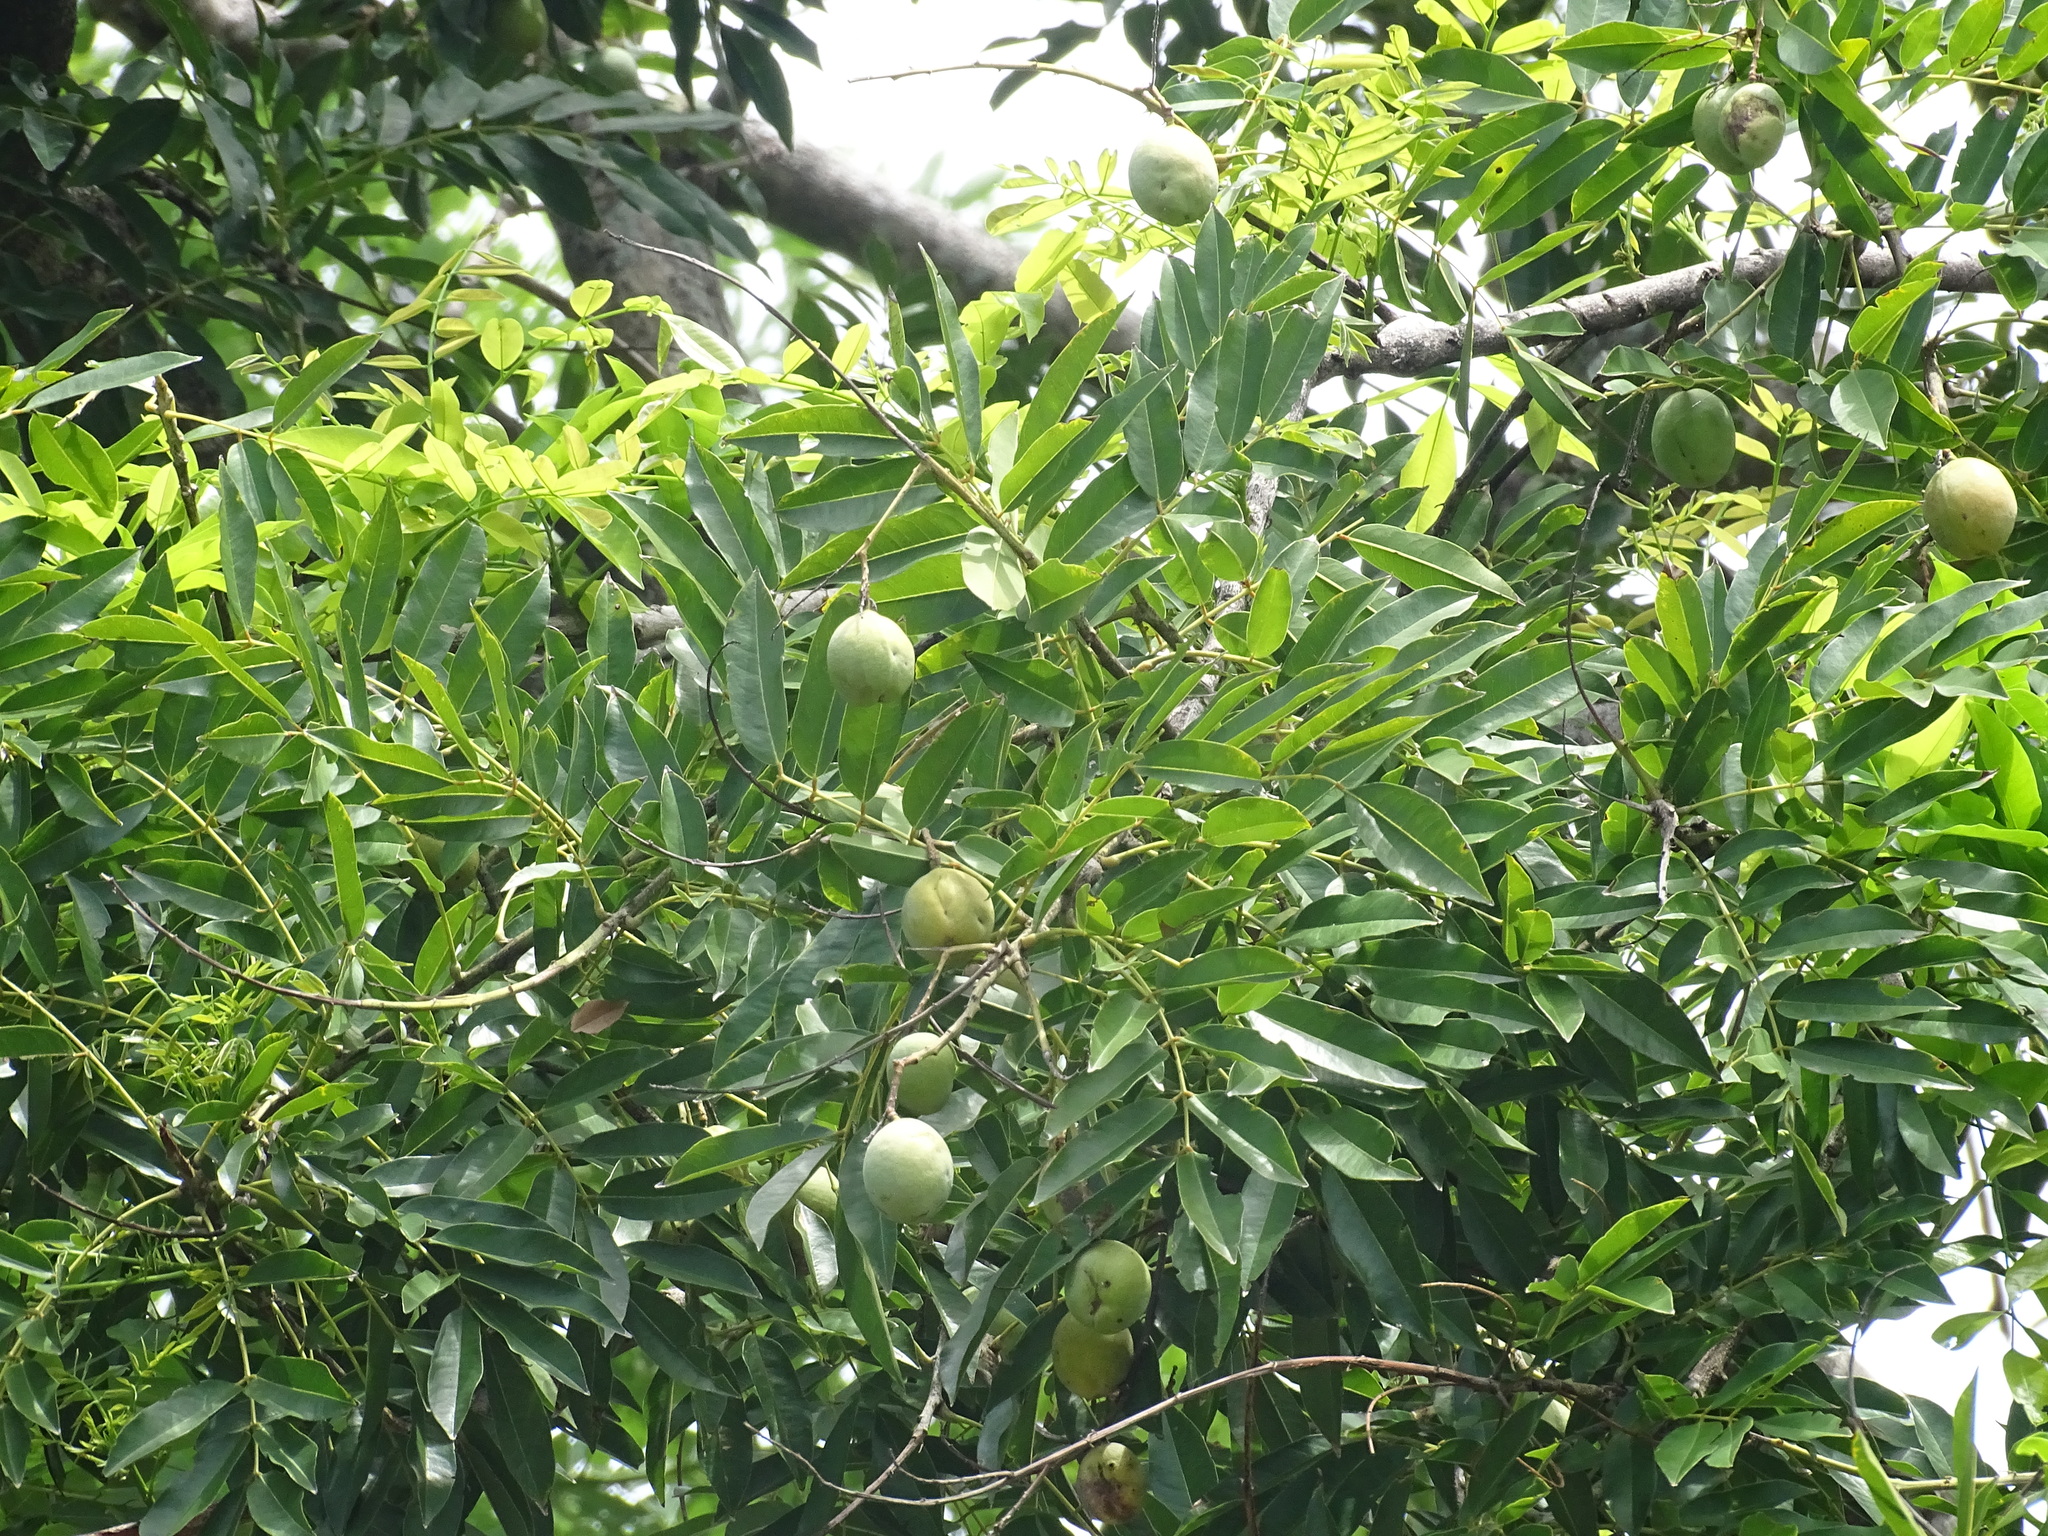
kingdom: Plantae
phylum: Tracheophyta
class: Magnoliopsida
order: Fabales
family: Fabaceae
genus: Andira
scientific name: Andira inermis
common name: Angelin
